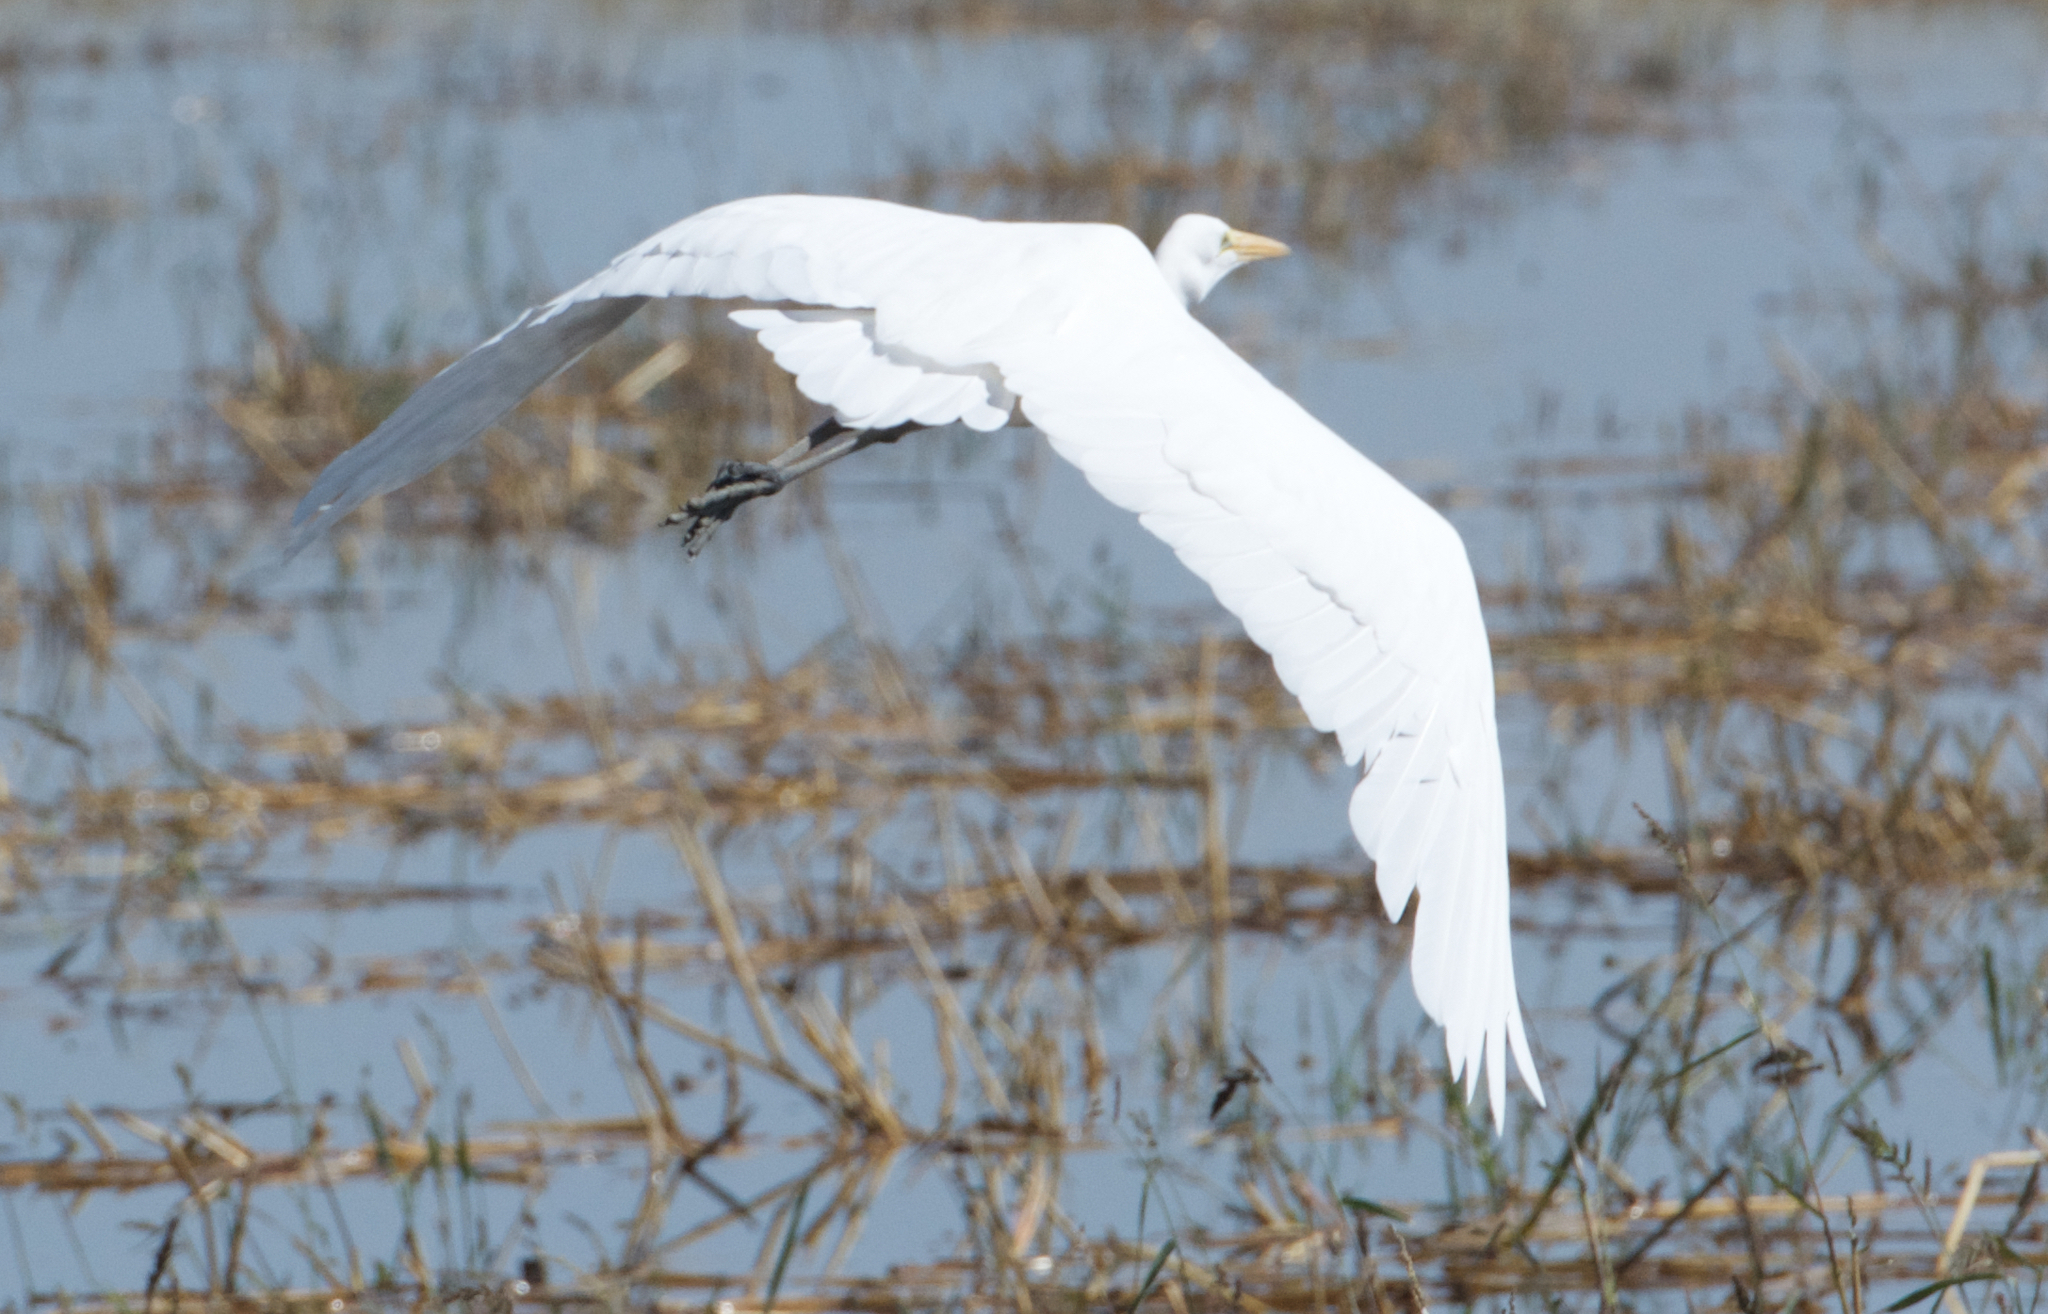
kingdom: Animalia
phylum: Chordata
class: Aves
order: Pelecaniformes
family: Ardeidae
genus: Ardea
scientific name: Ardea alba
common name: Great egret
